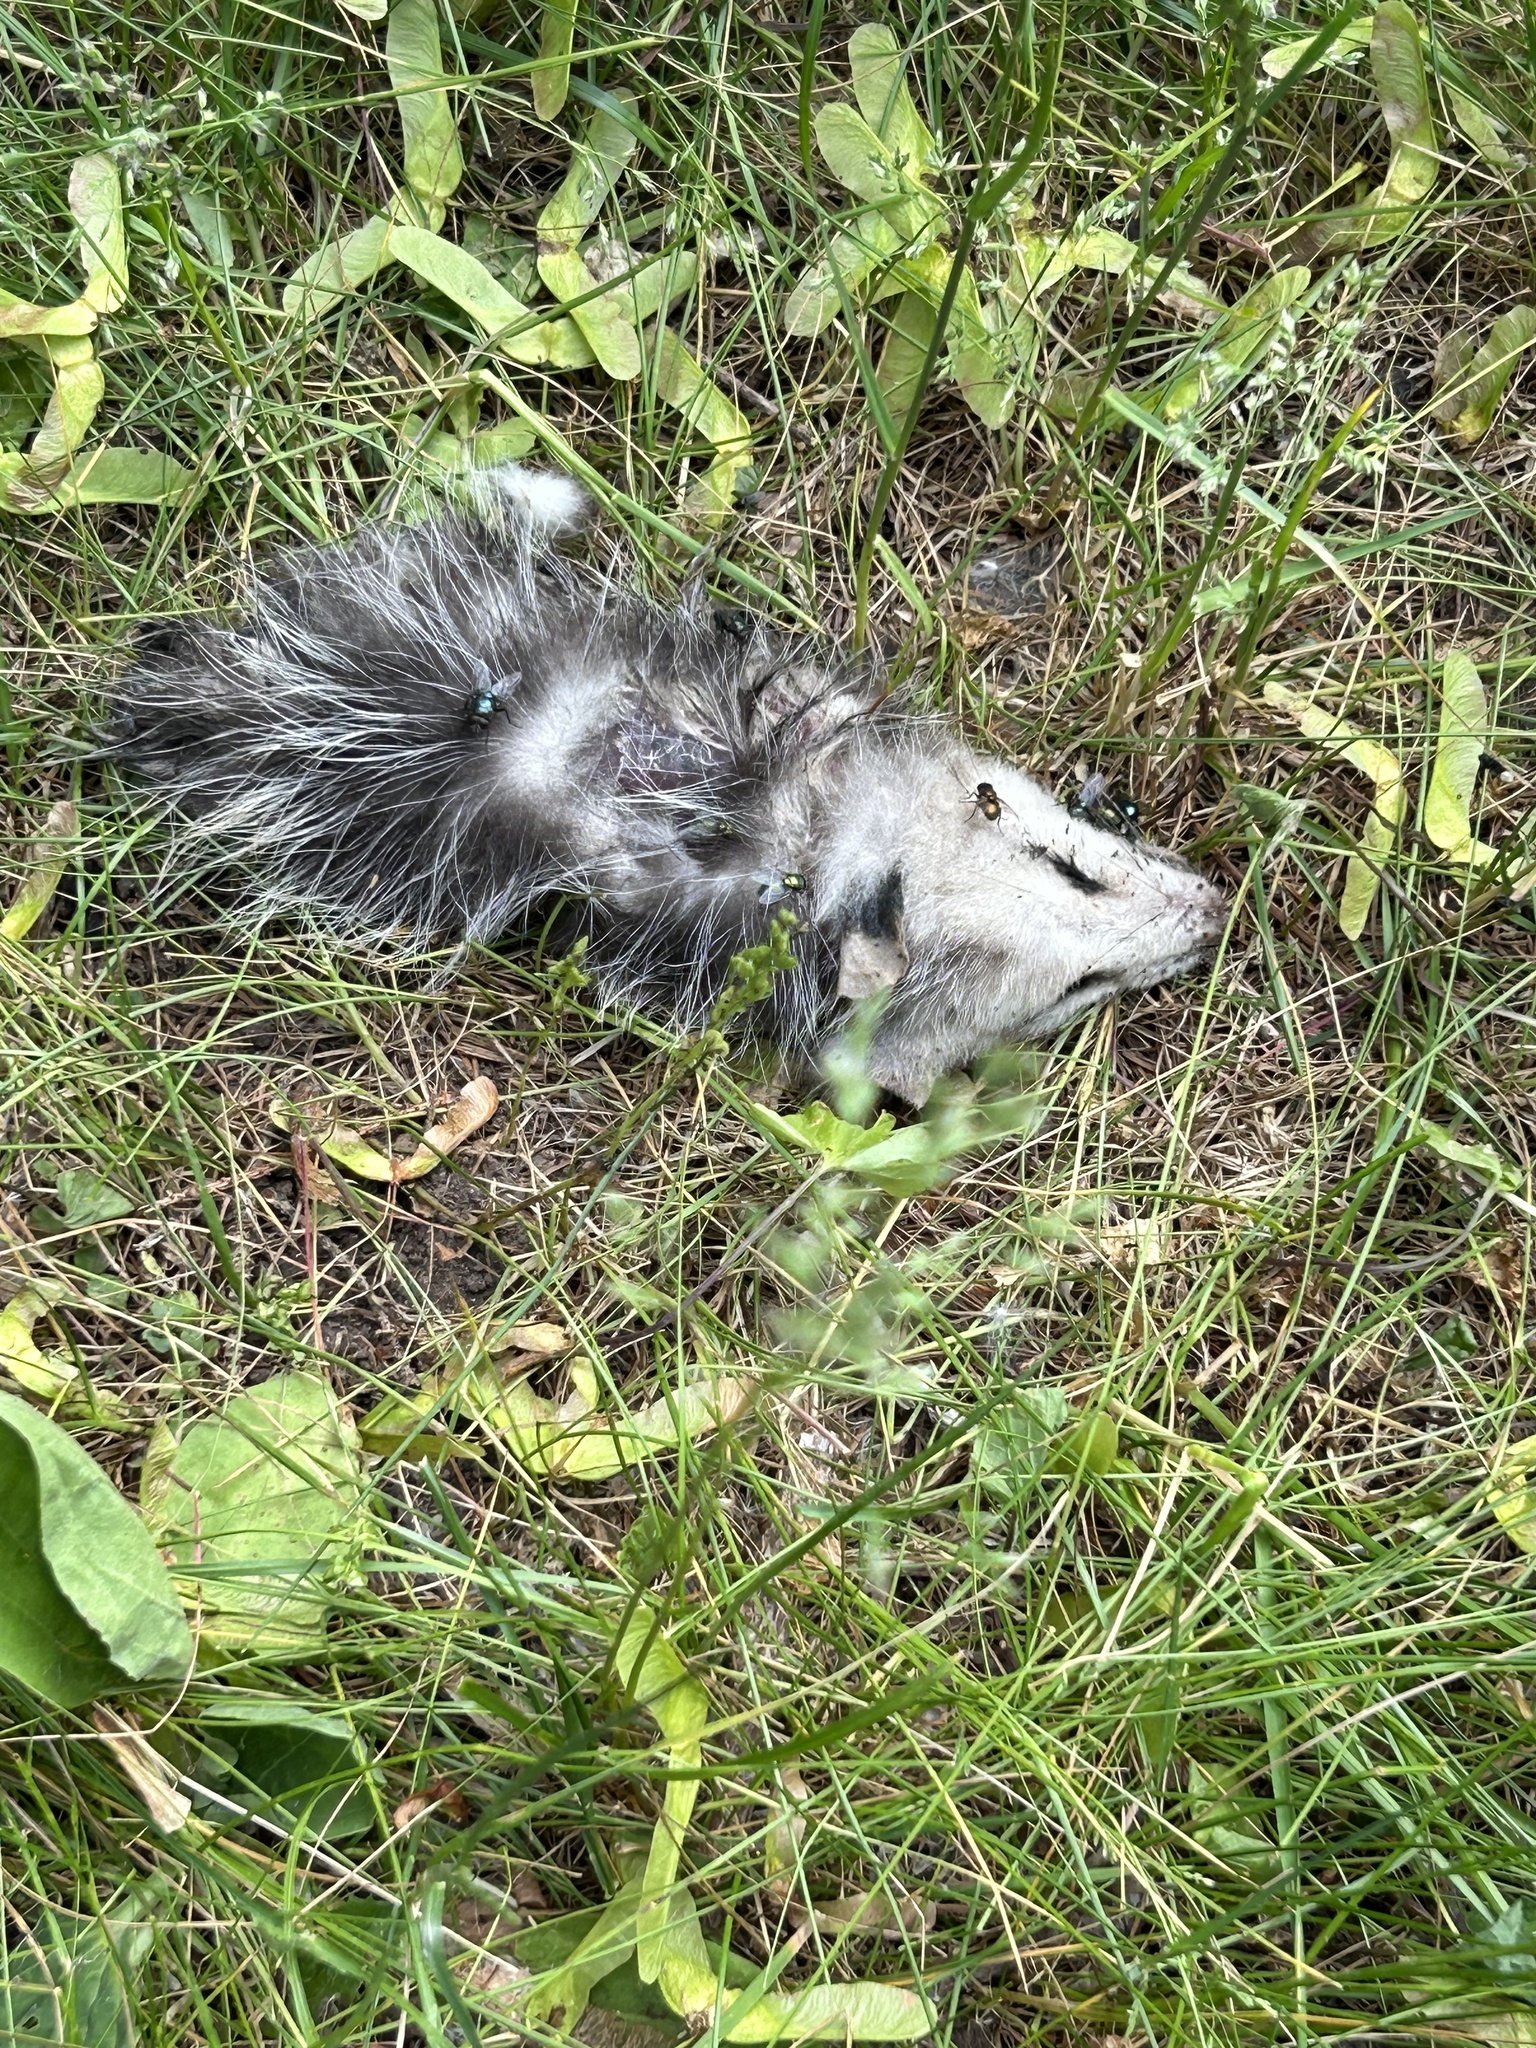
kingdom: Animalia
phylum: Chordata
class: Mammalia
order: Didelphimorphia
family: Didelphidae
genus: Didelphis
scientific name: Didelphis virginiana
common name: Virginia opossum
